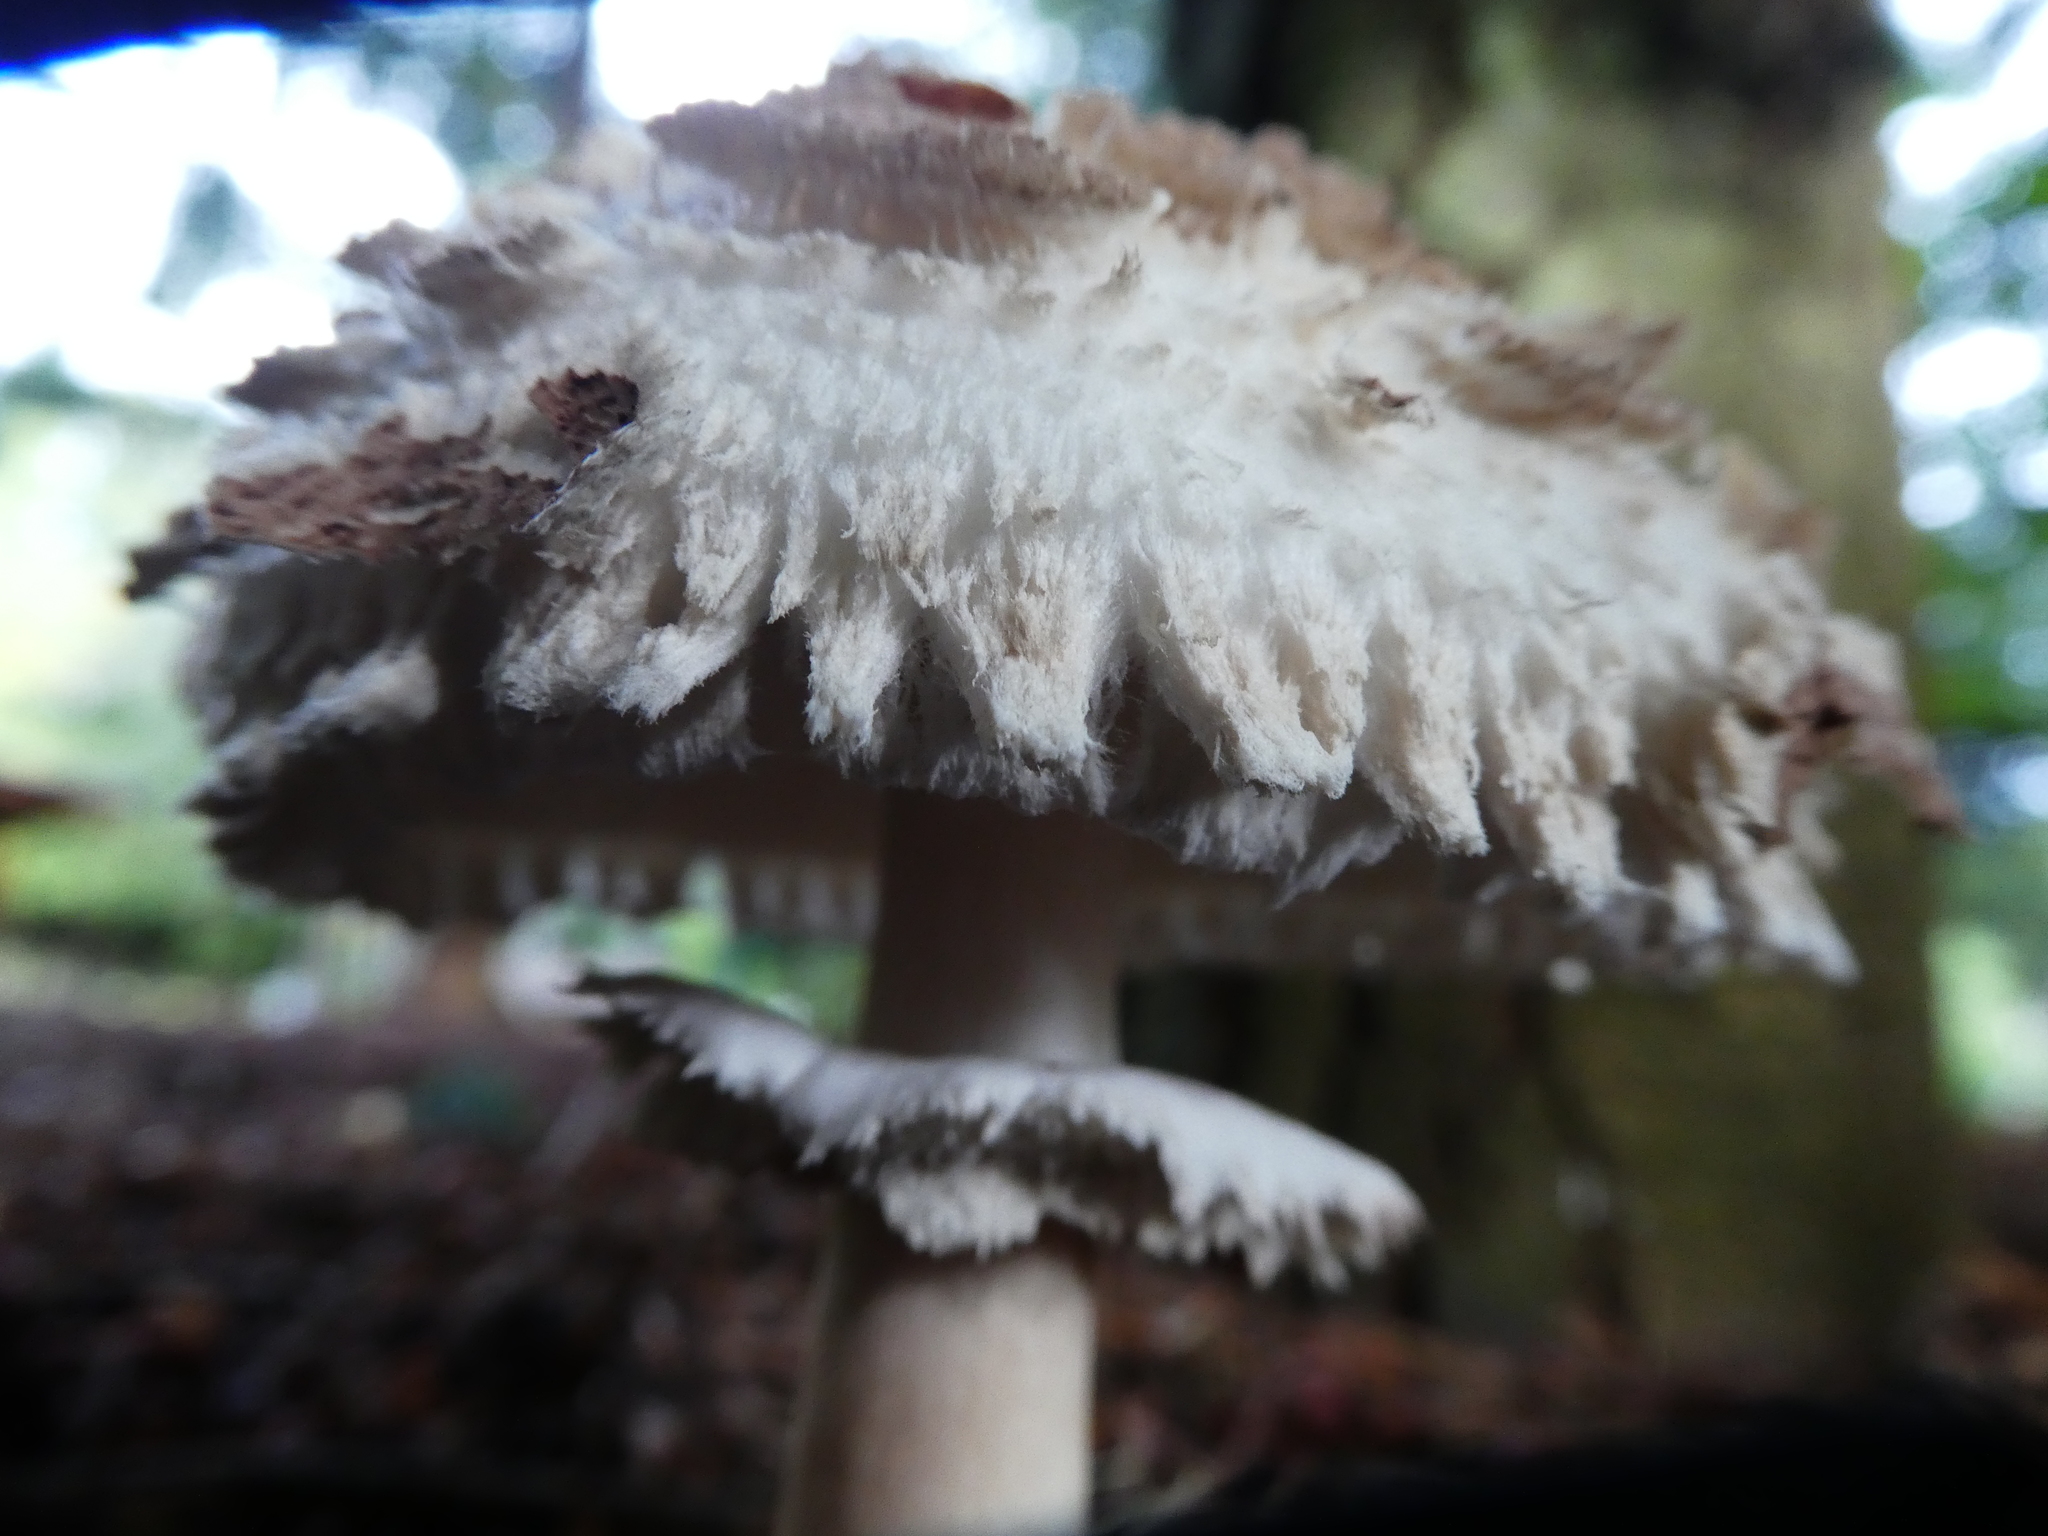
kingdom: Fungi
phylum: Basidiomycota
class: Agaricomycetes
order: Agaricales
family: Agaricaceae
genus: Chlorophyllum
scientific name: Chlorophyllum rhacodes
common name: Shaggy parasol
